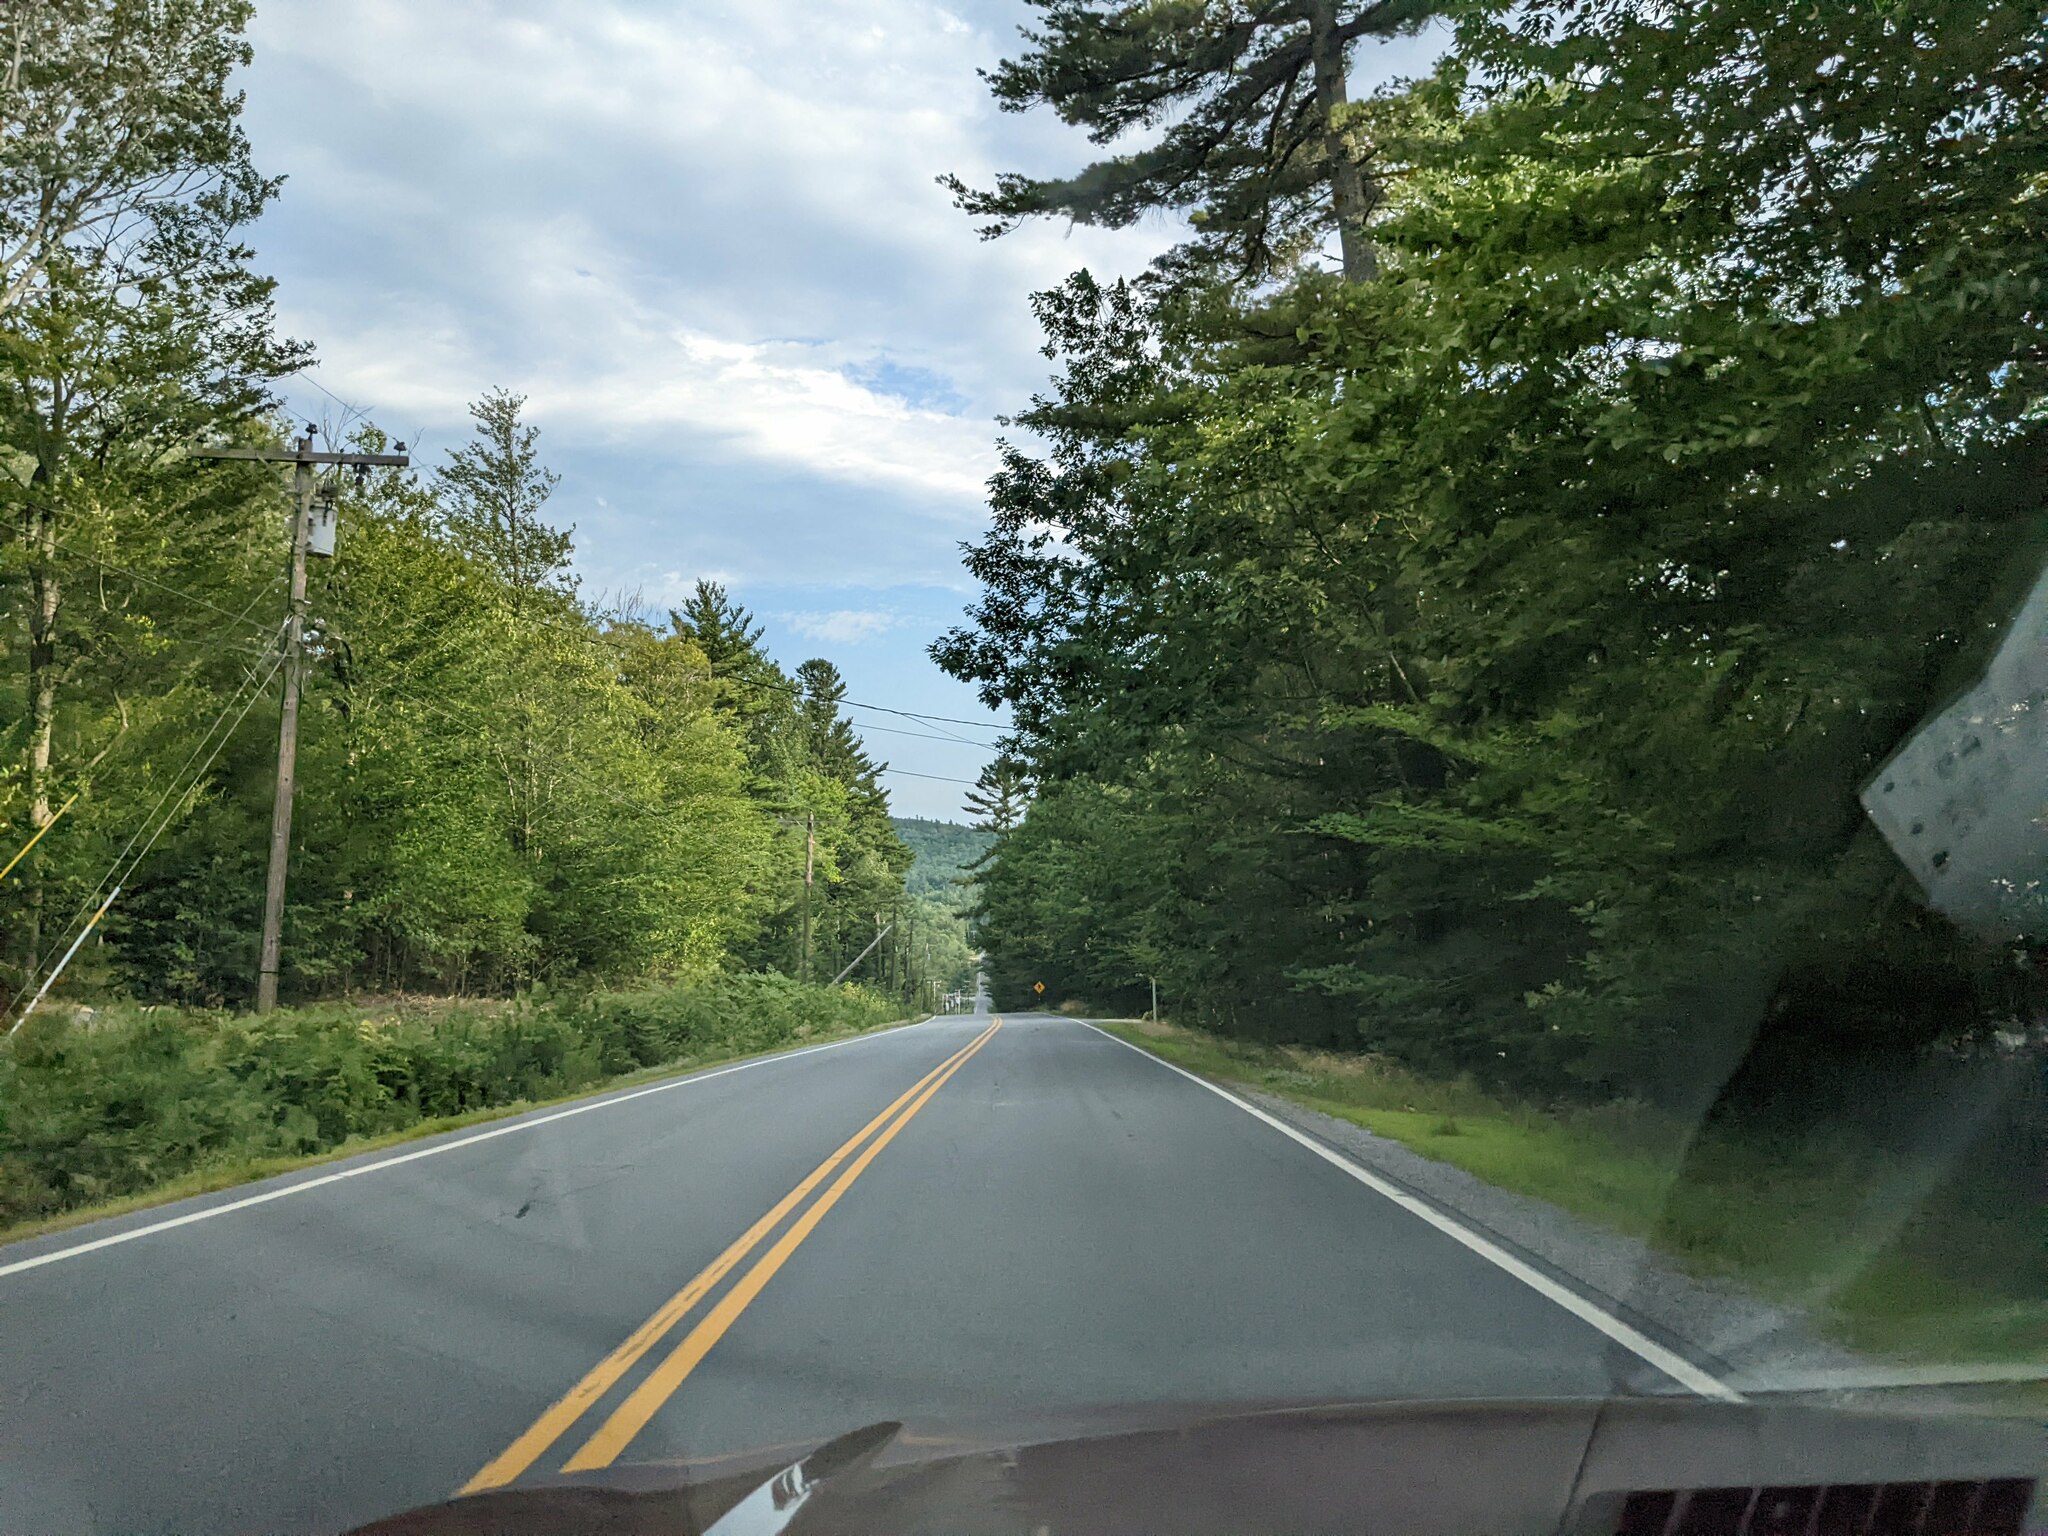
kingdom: Plantae
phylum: Tracheophyta
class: Pinopsida
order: Pinales
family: Pinaceae
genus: Pinus
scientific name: Pinus strobus
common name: Weymouth pine
